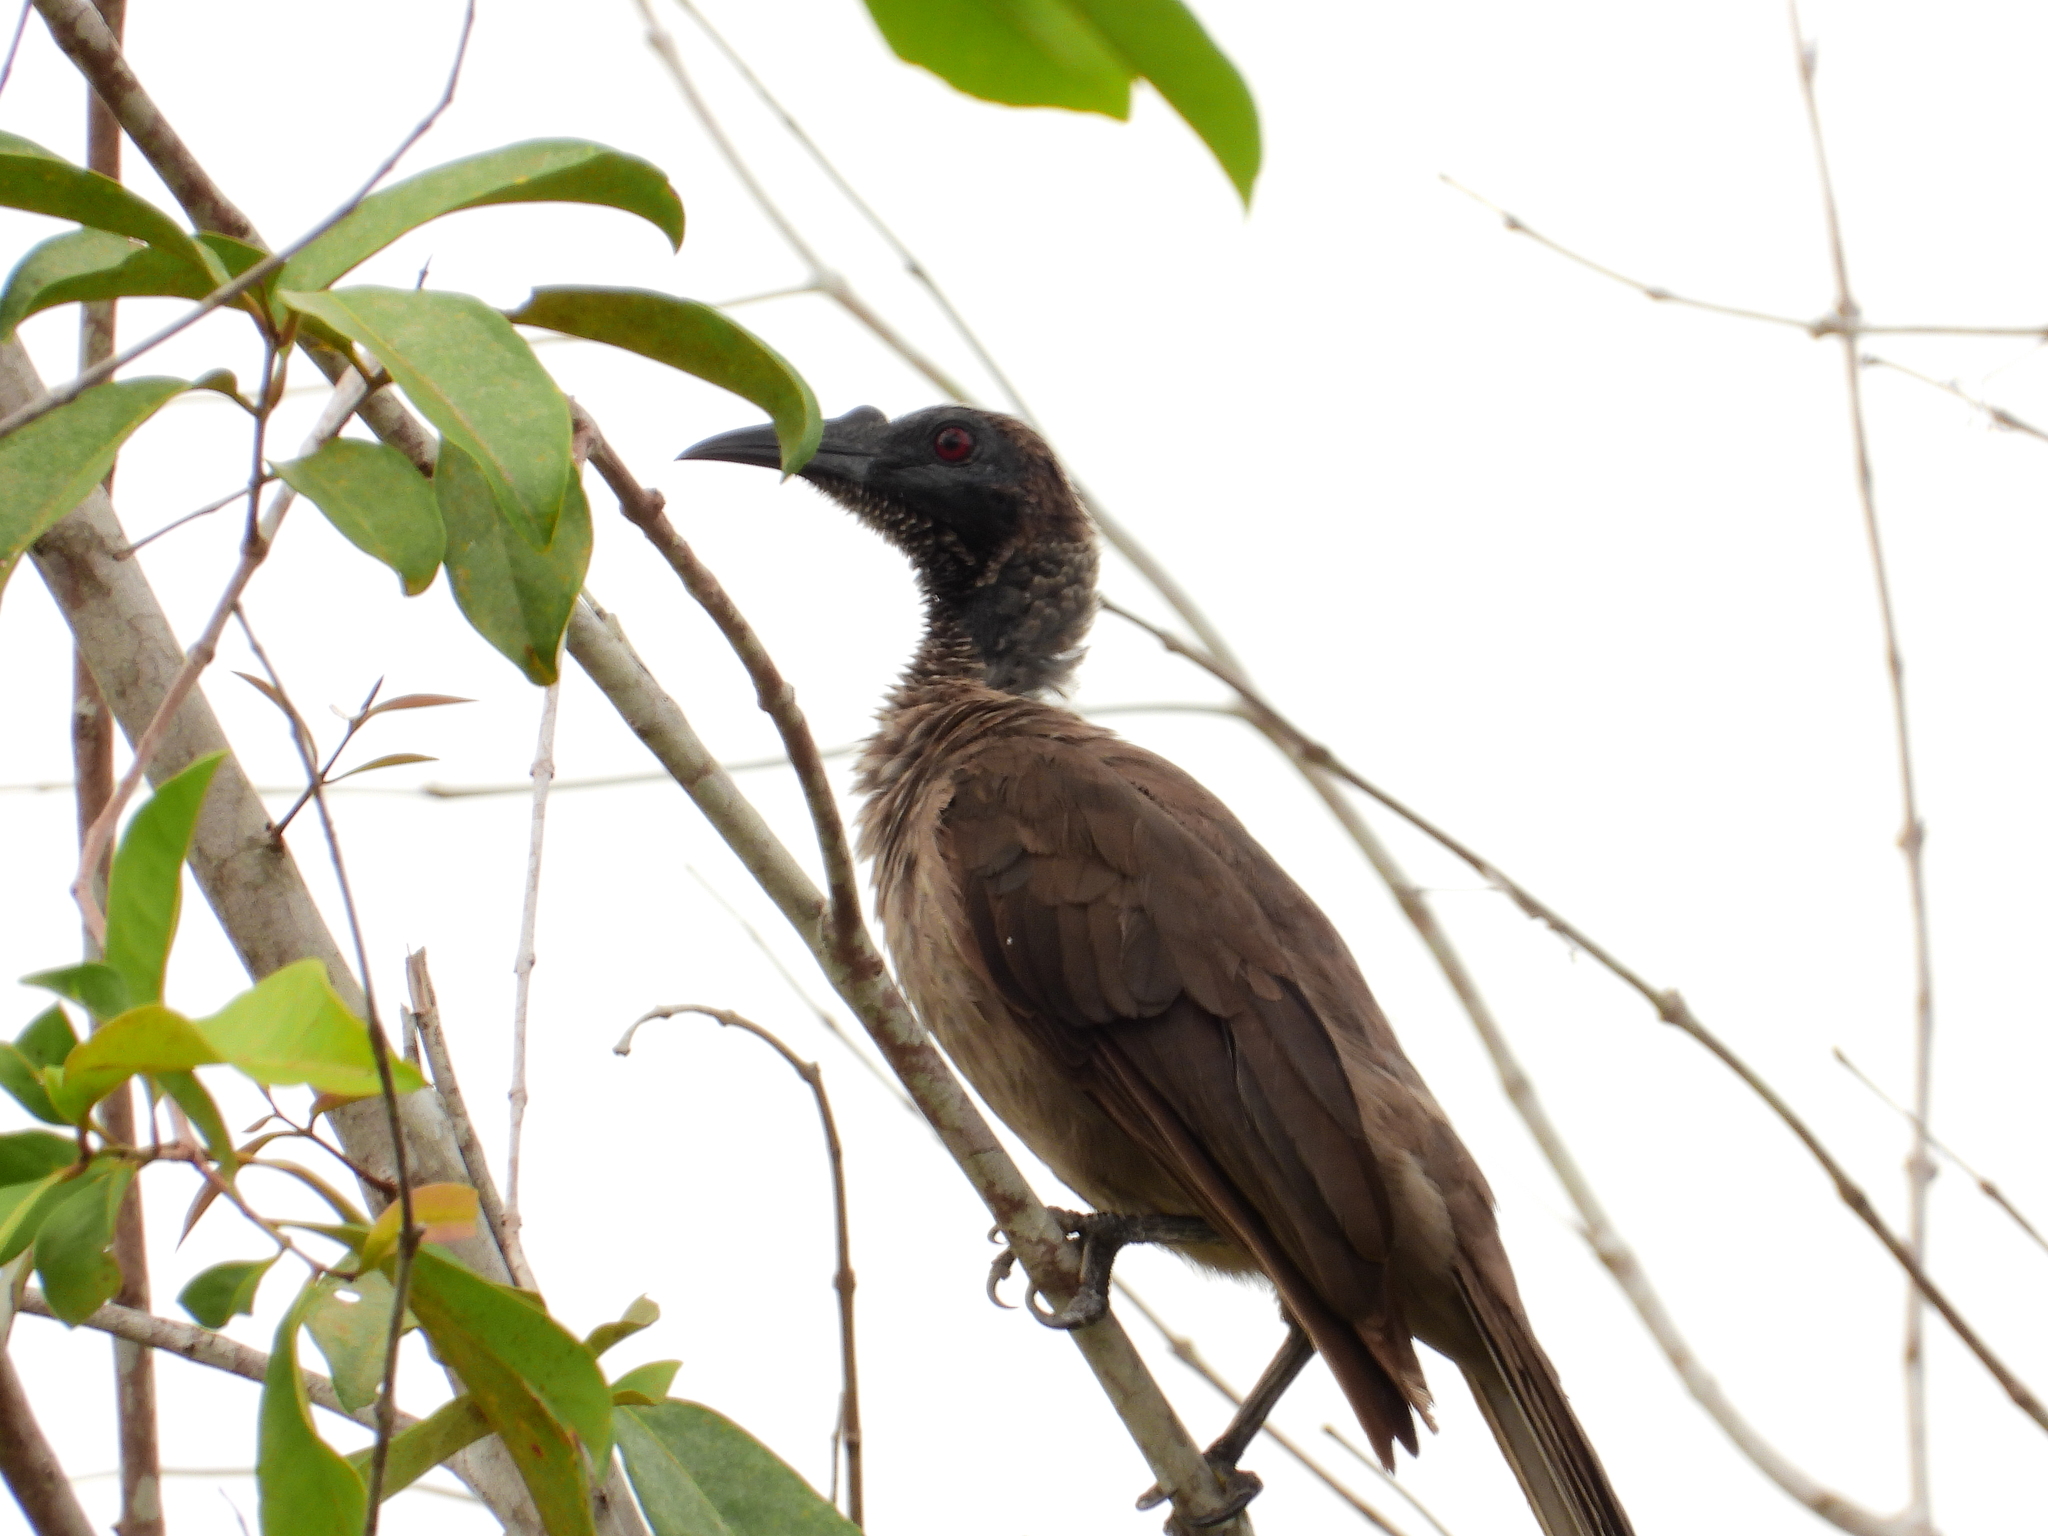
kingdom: Animalia
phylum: Chordata
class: Aves
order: Passeriformes
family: Meliphagidae
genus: Philemon
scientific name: Philemon buceroides
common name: Helmeted friarbird
